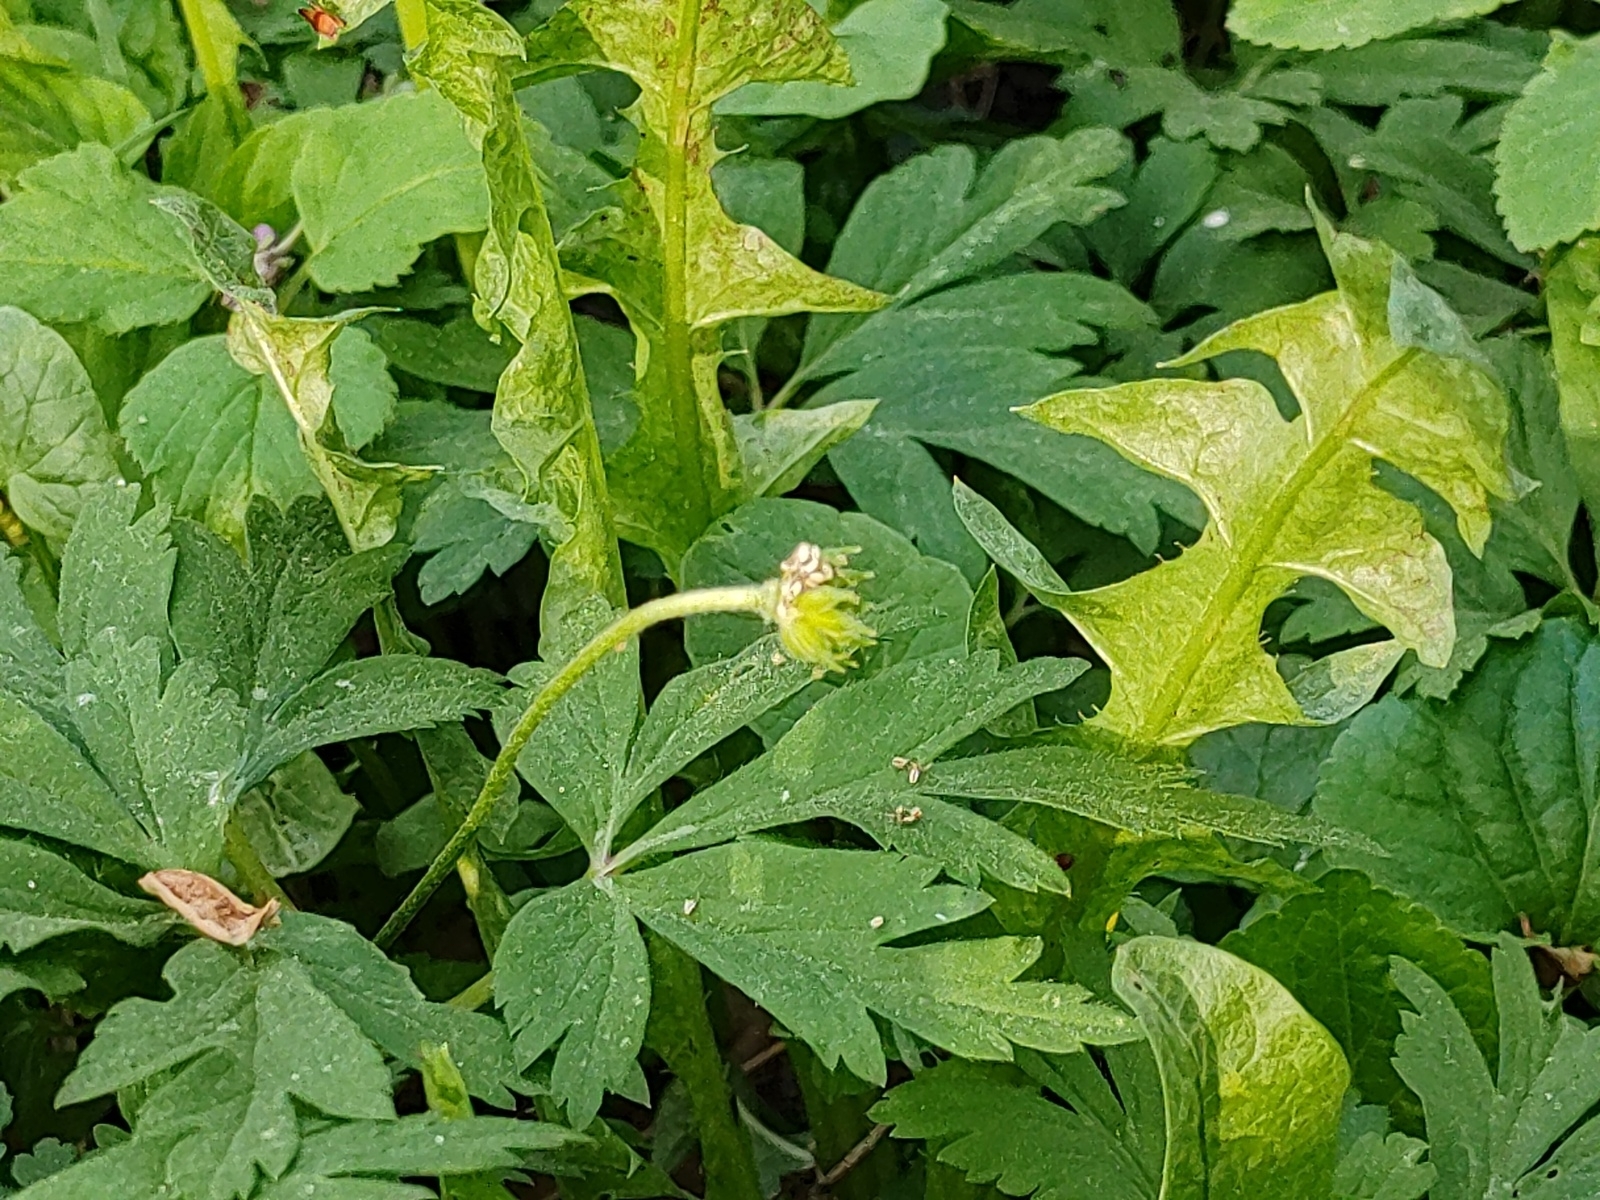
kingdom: Plantae
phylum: Tracheophyta
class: Magnoliopsida
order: Ranunculales
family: Ranunculaceae
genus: Anemone
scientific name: Anemone nemorosa
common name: Wood anemone
